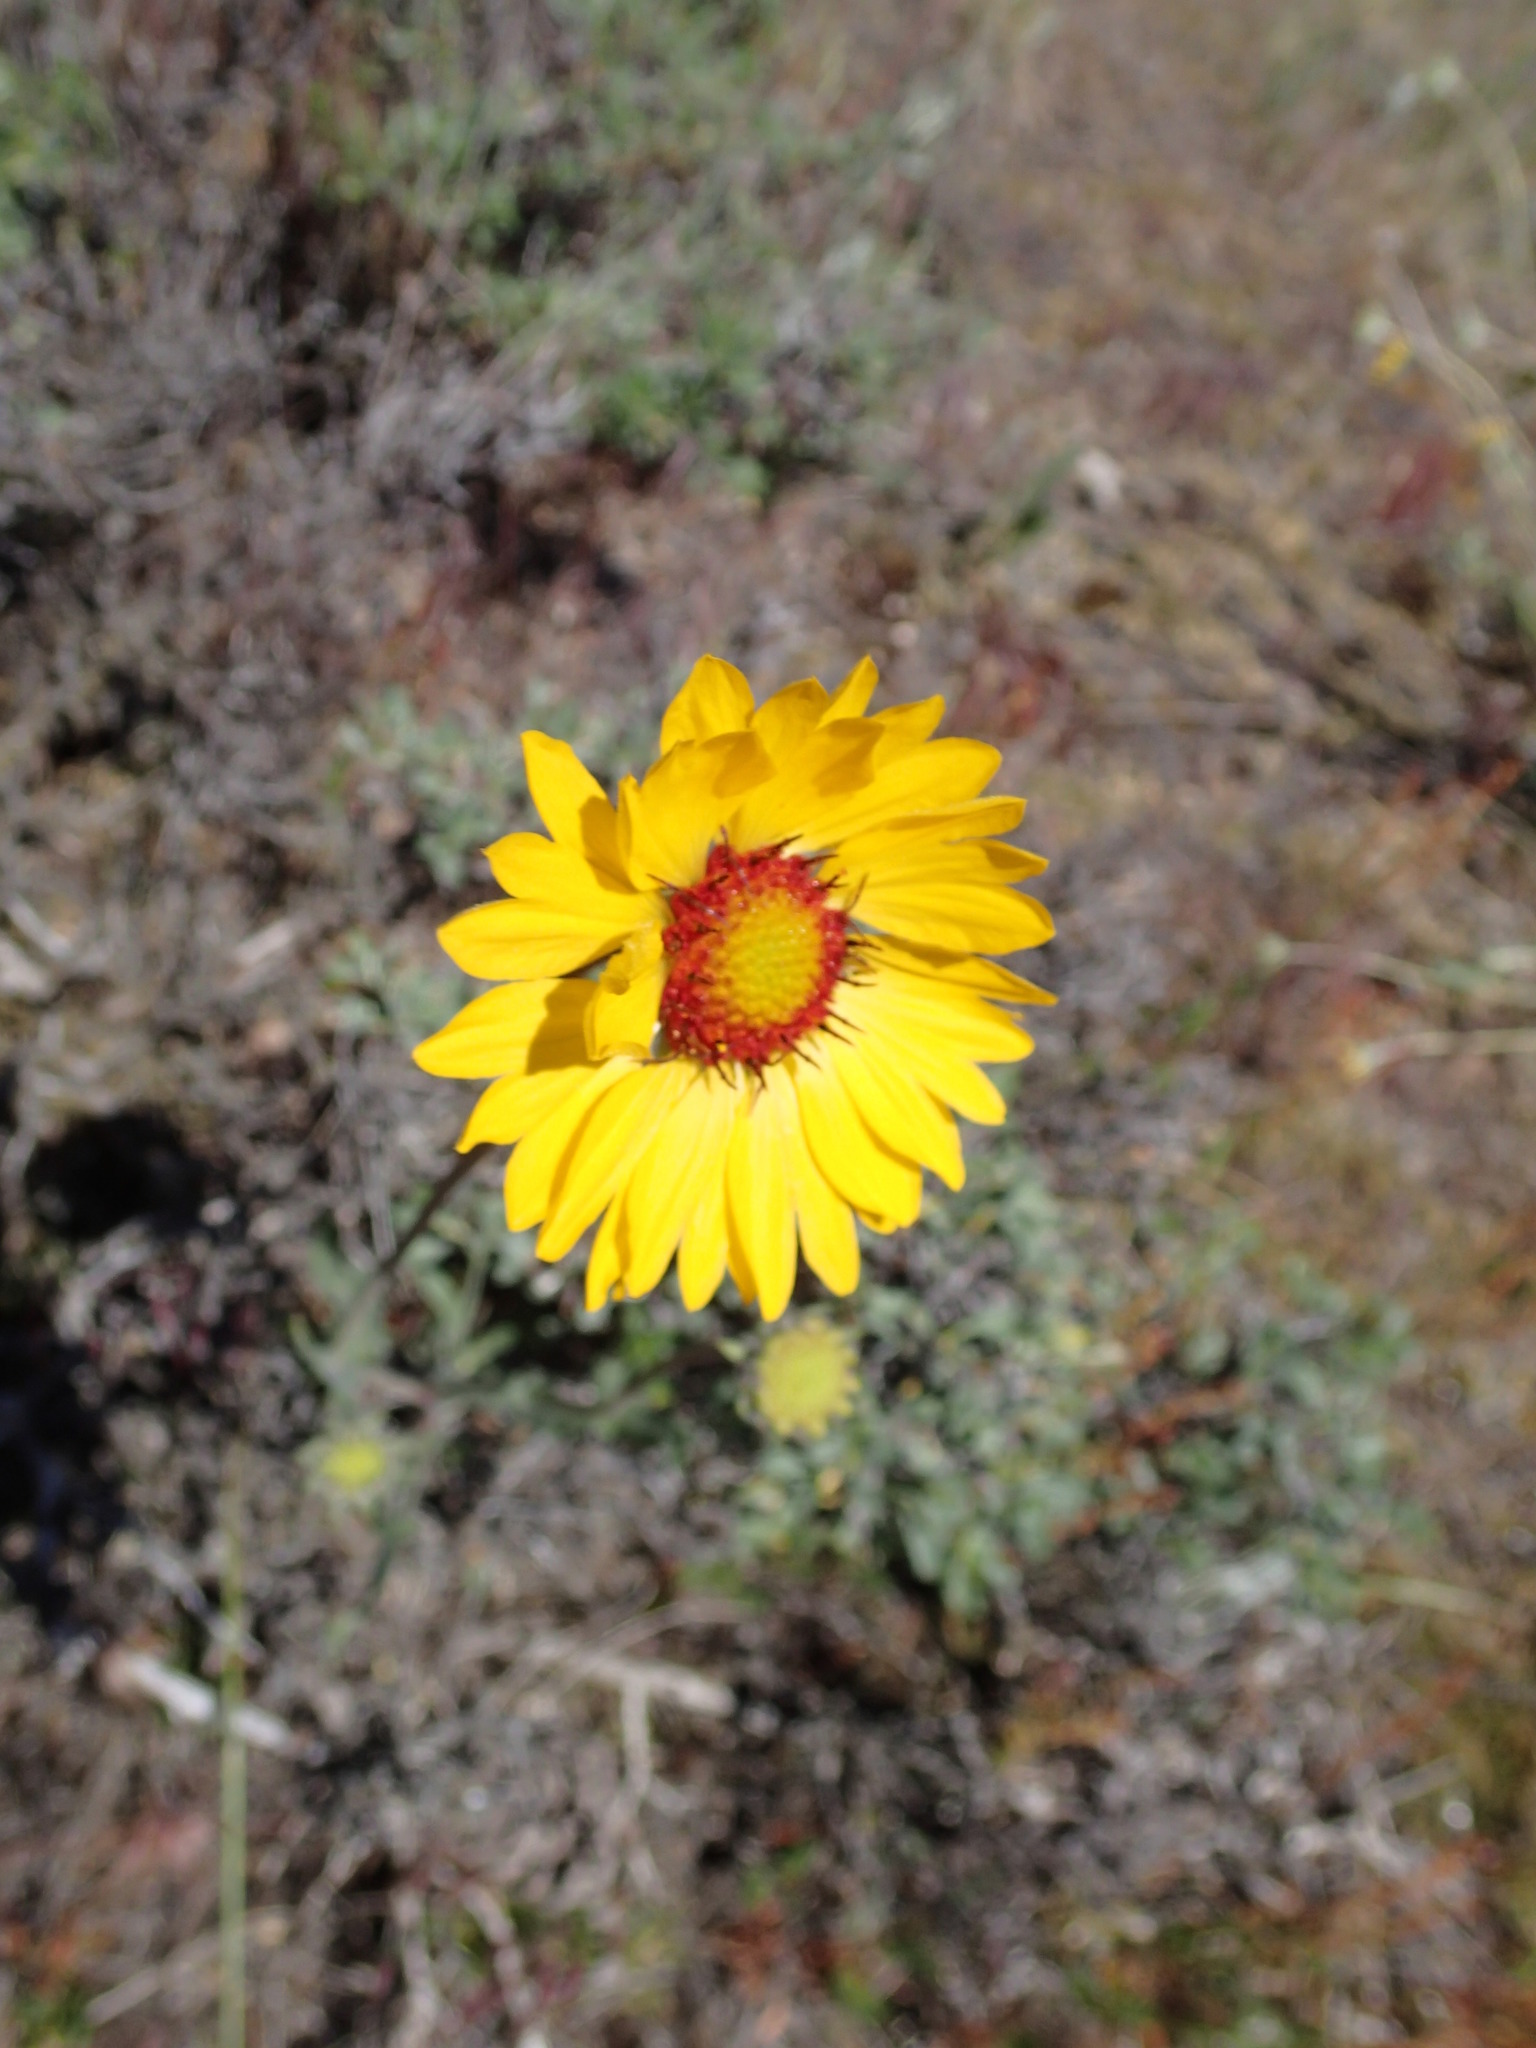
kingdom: Plantae
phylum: Tracheophyta
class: Magnoliopsida
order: Asterales
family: Asteraceae
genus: Gaillardia
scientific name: Gaillardia aristata
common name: Blanket-flower
